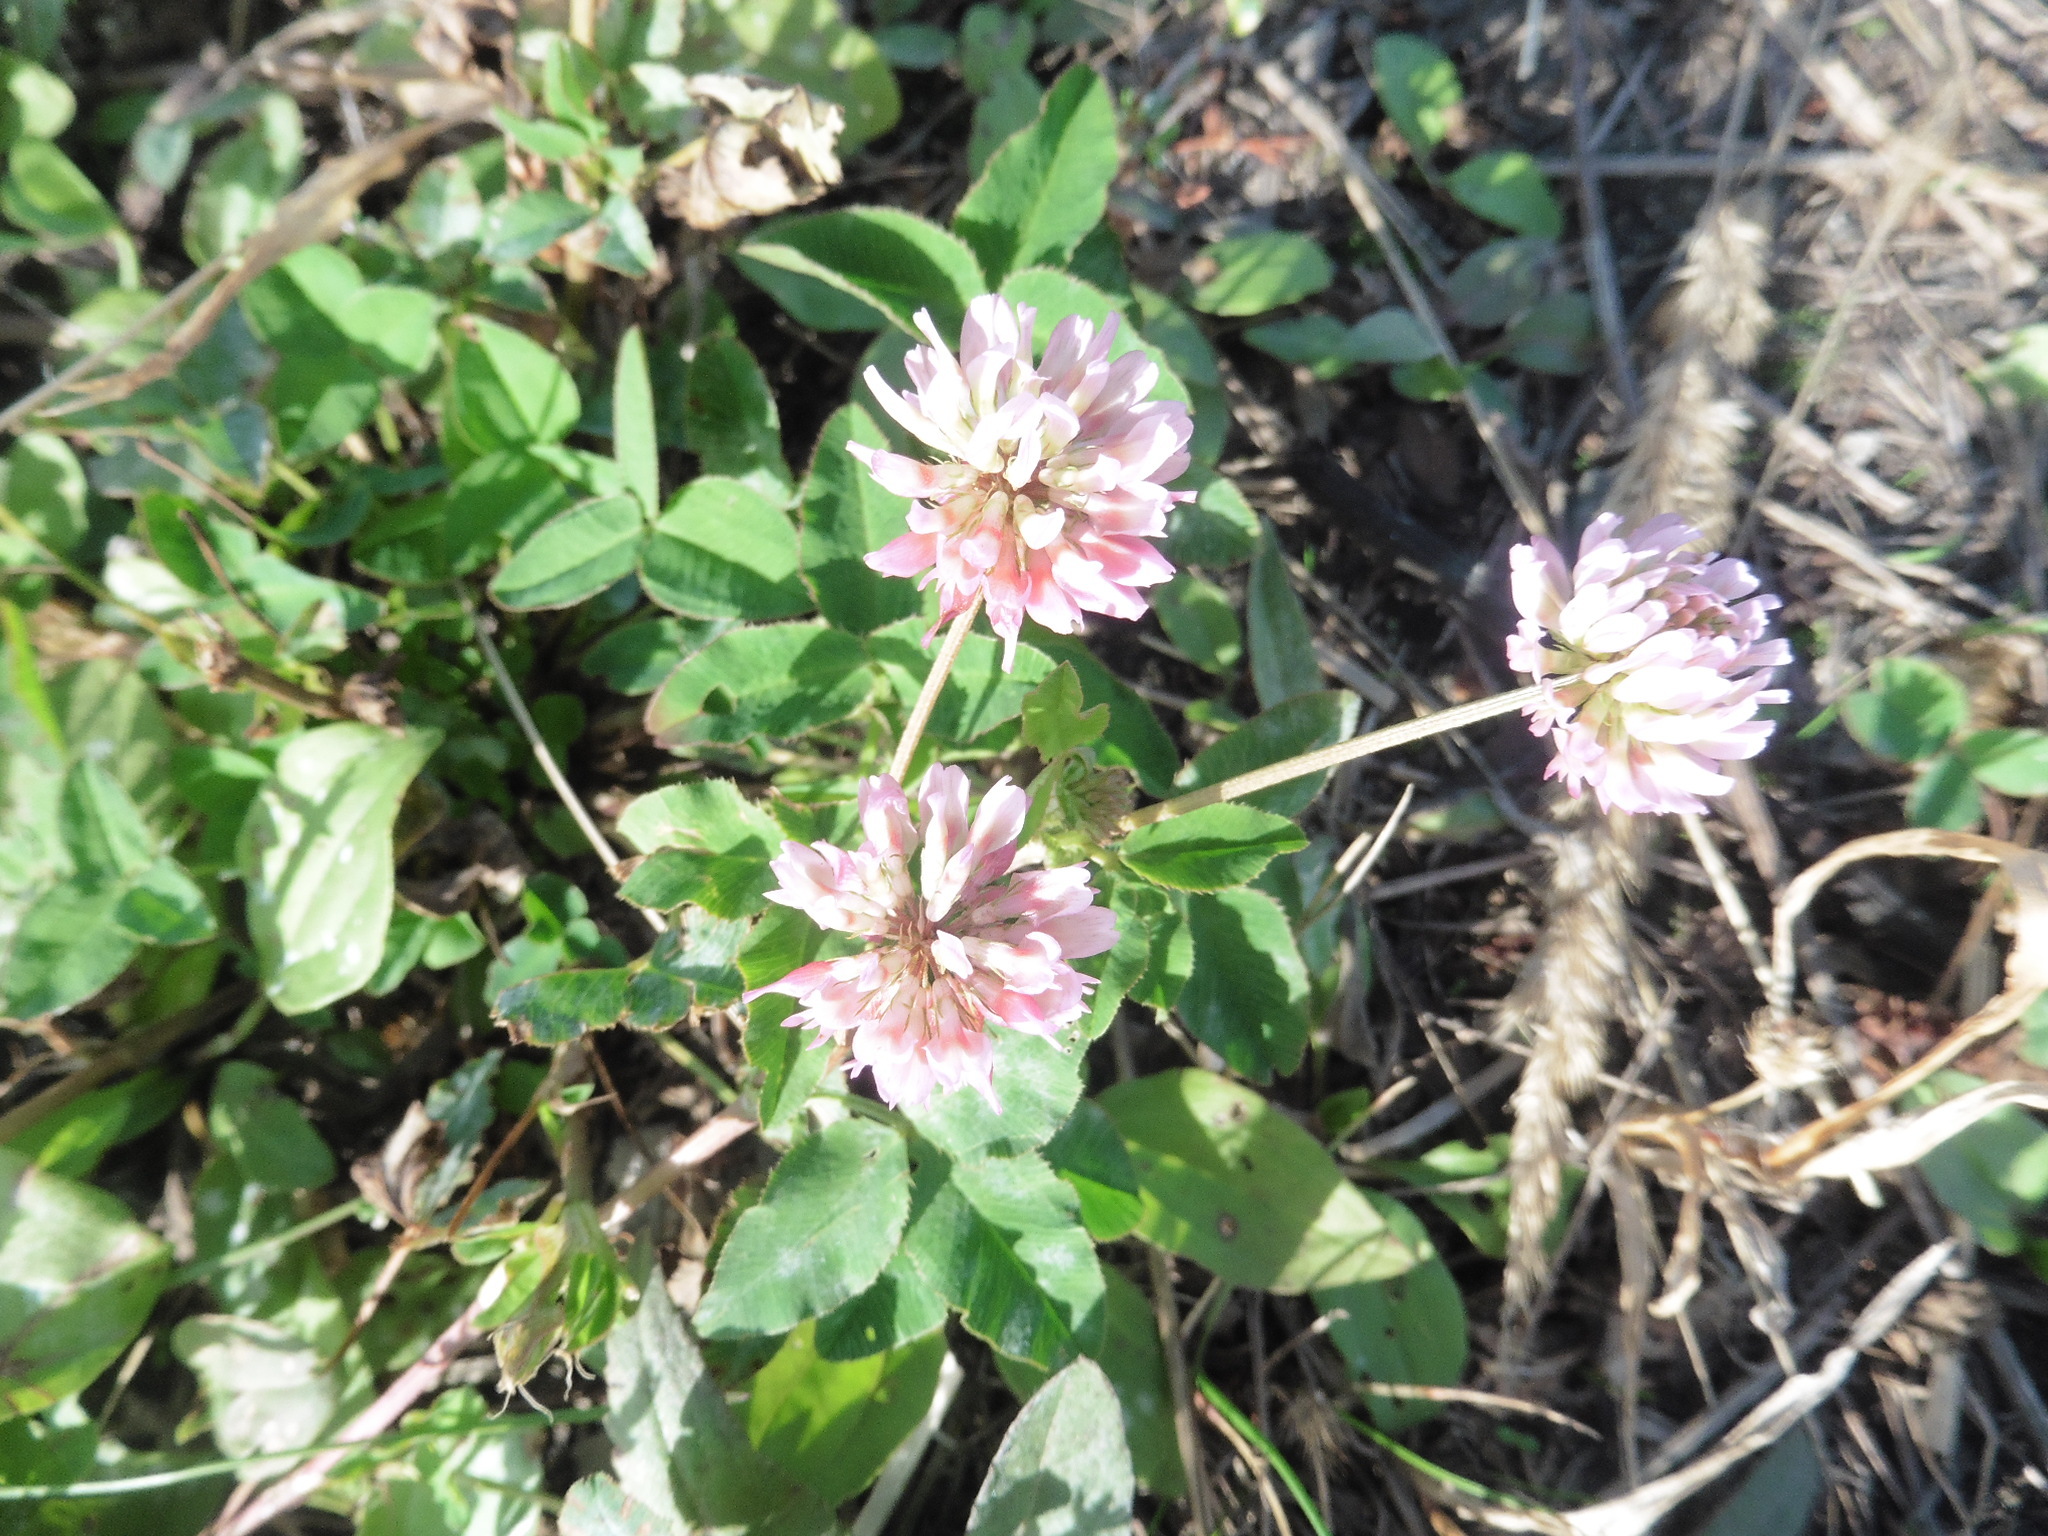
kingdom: Plantae
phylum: Tracheophyta
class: Magnoliopsida
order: Fabales
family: Fabaceae
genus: Trifolium
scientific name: Trifolium hybridum
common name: Alsike clover
